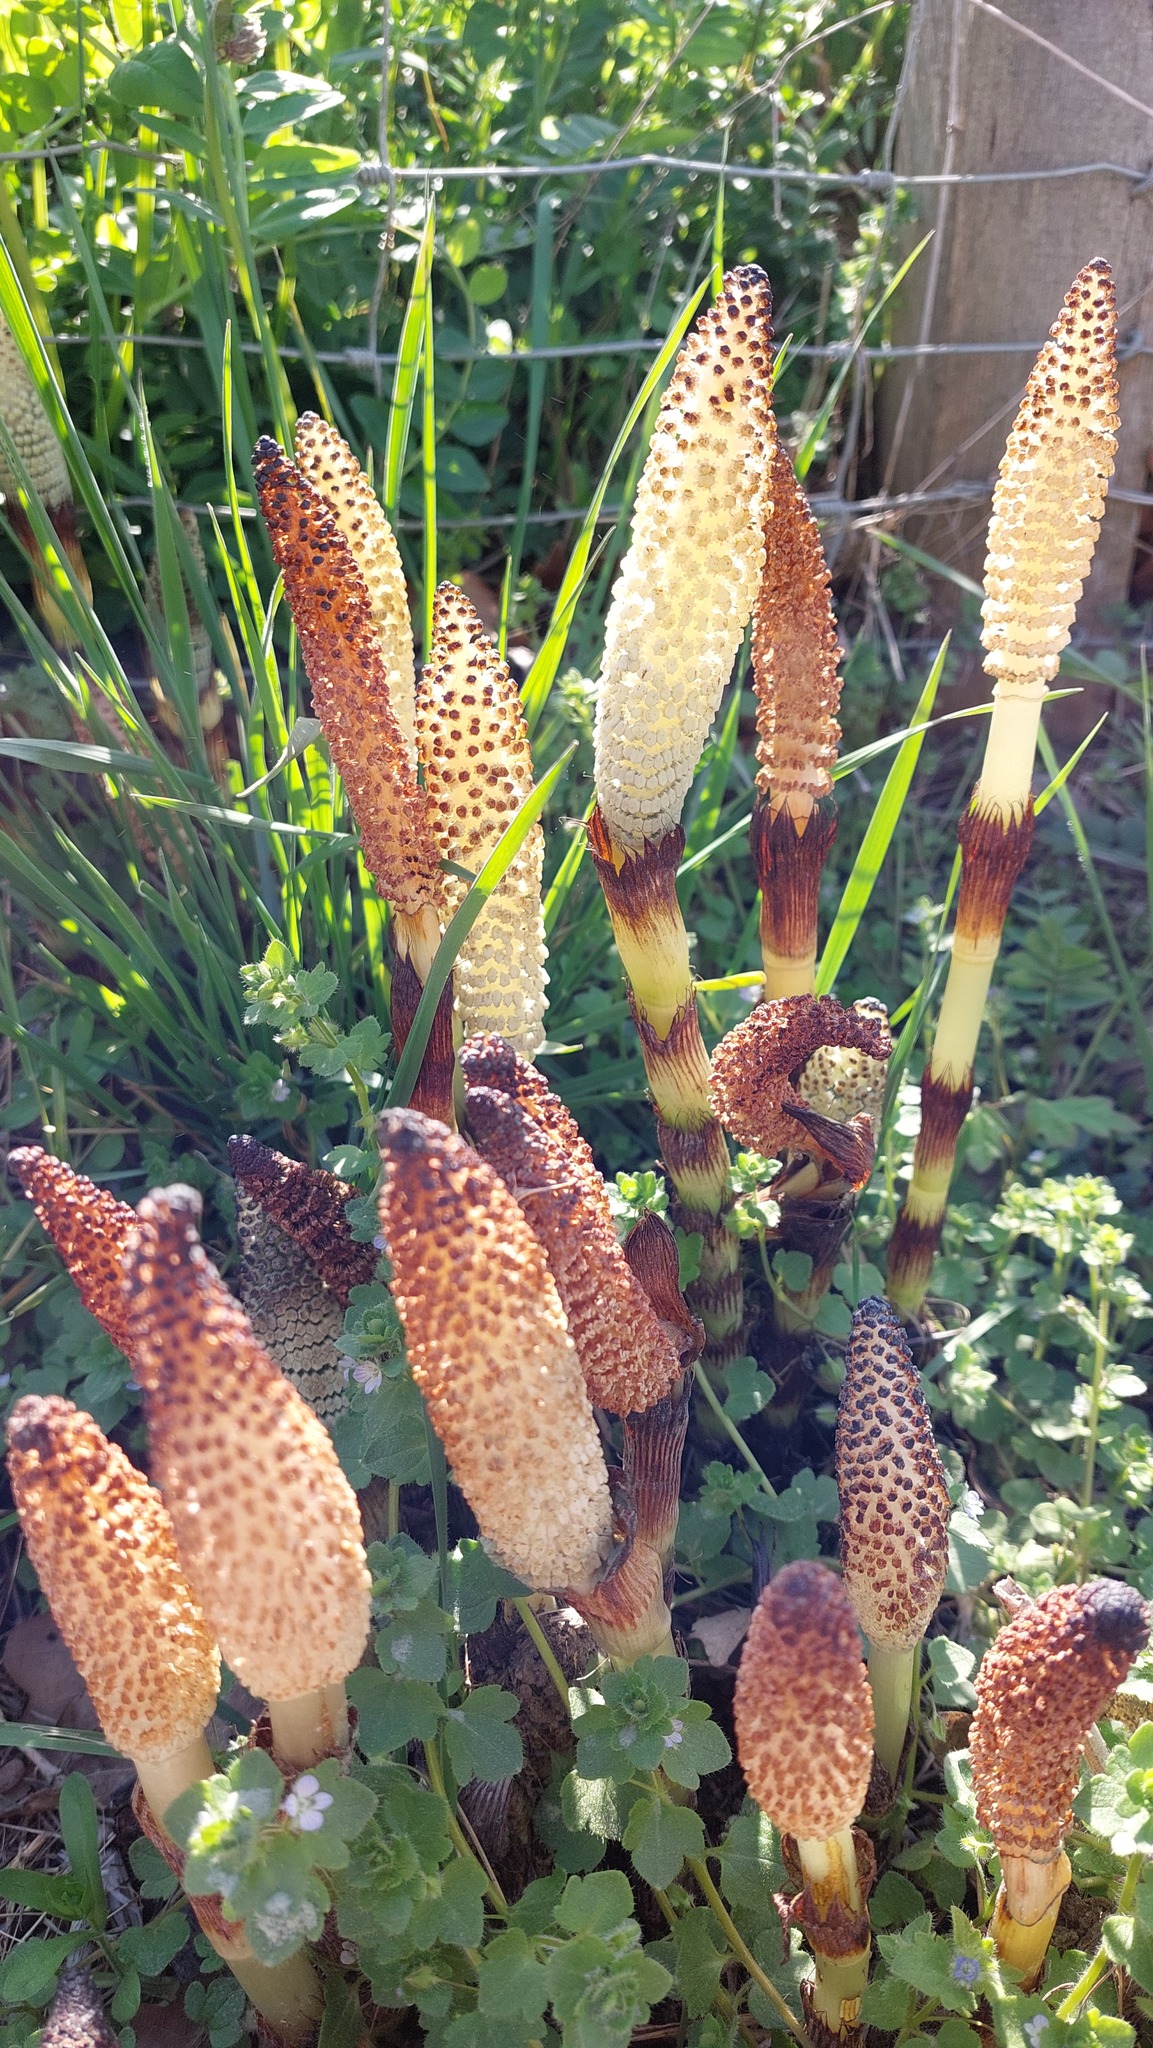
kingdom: Plantae
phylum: Tracheophyta
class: Polypodiopsida
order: Equisetales
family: Equisetaceae
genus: Equisetum
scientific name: Equisetum telmateia
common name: Great horsetail
